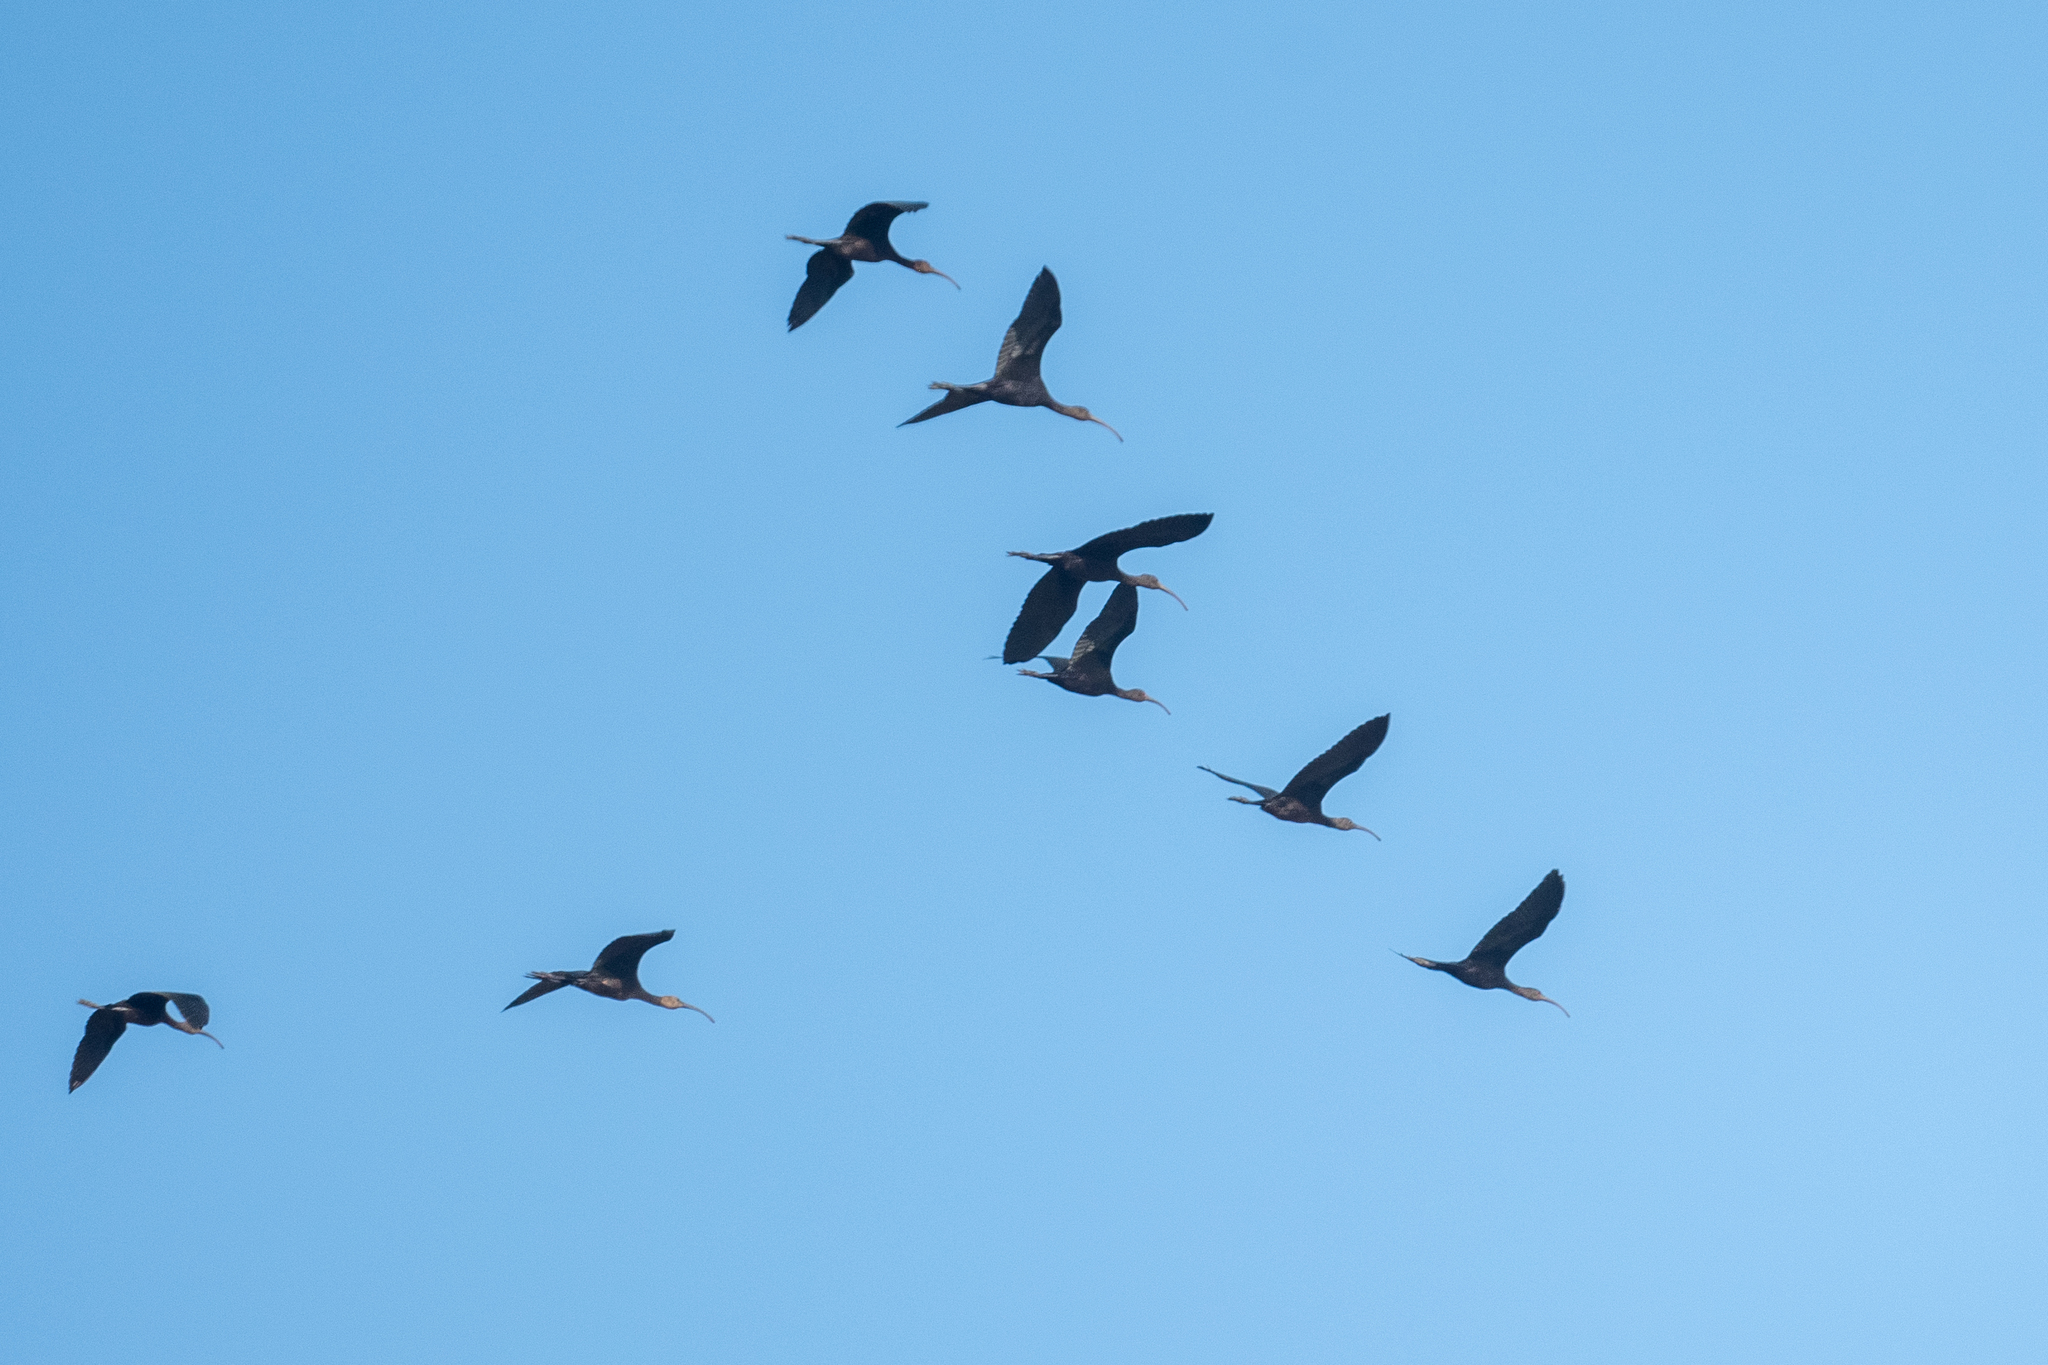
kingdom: Animalia
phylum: Chordata
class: Aves
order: Pelecaniformes
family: Threskiornithidae
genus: Plegadis
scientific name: Plegadis chihi
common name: White-faced ibis
